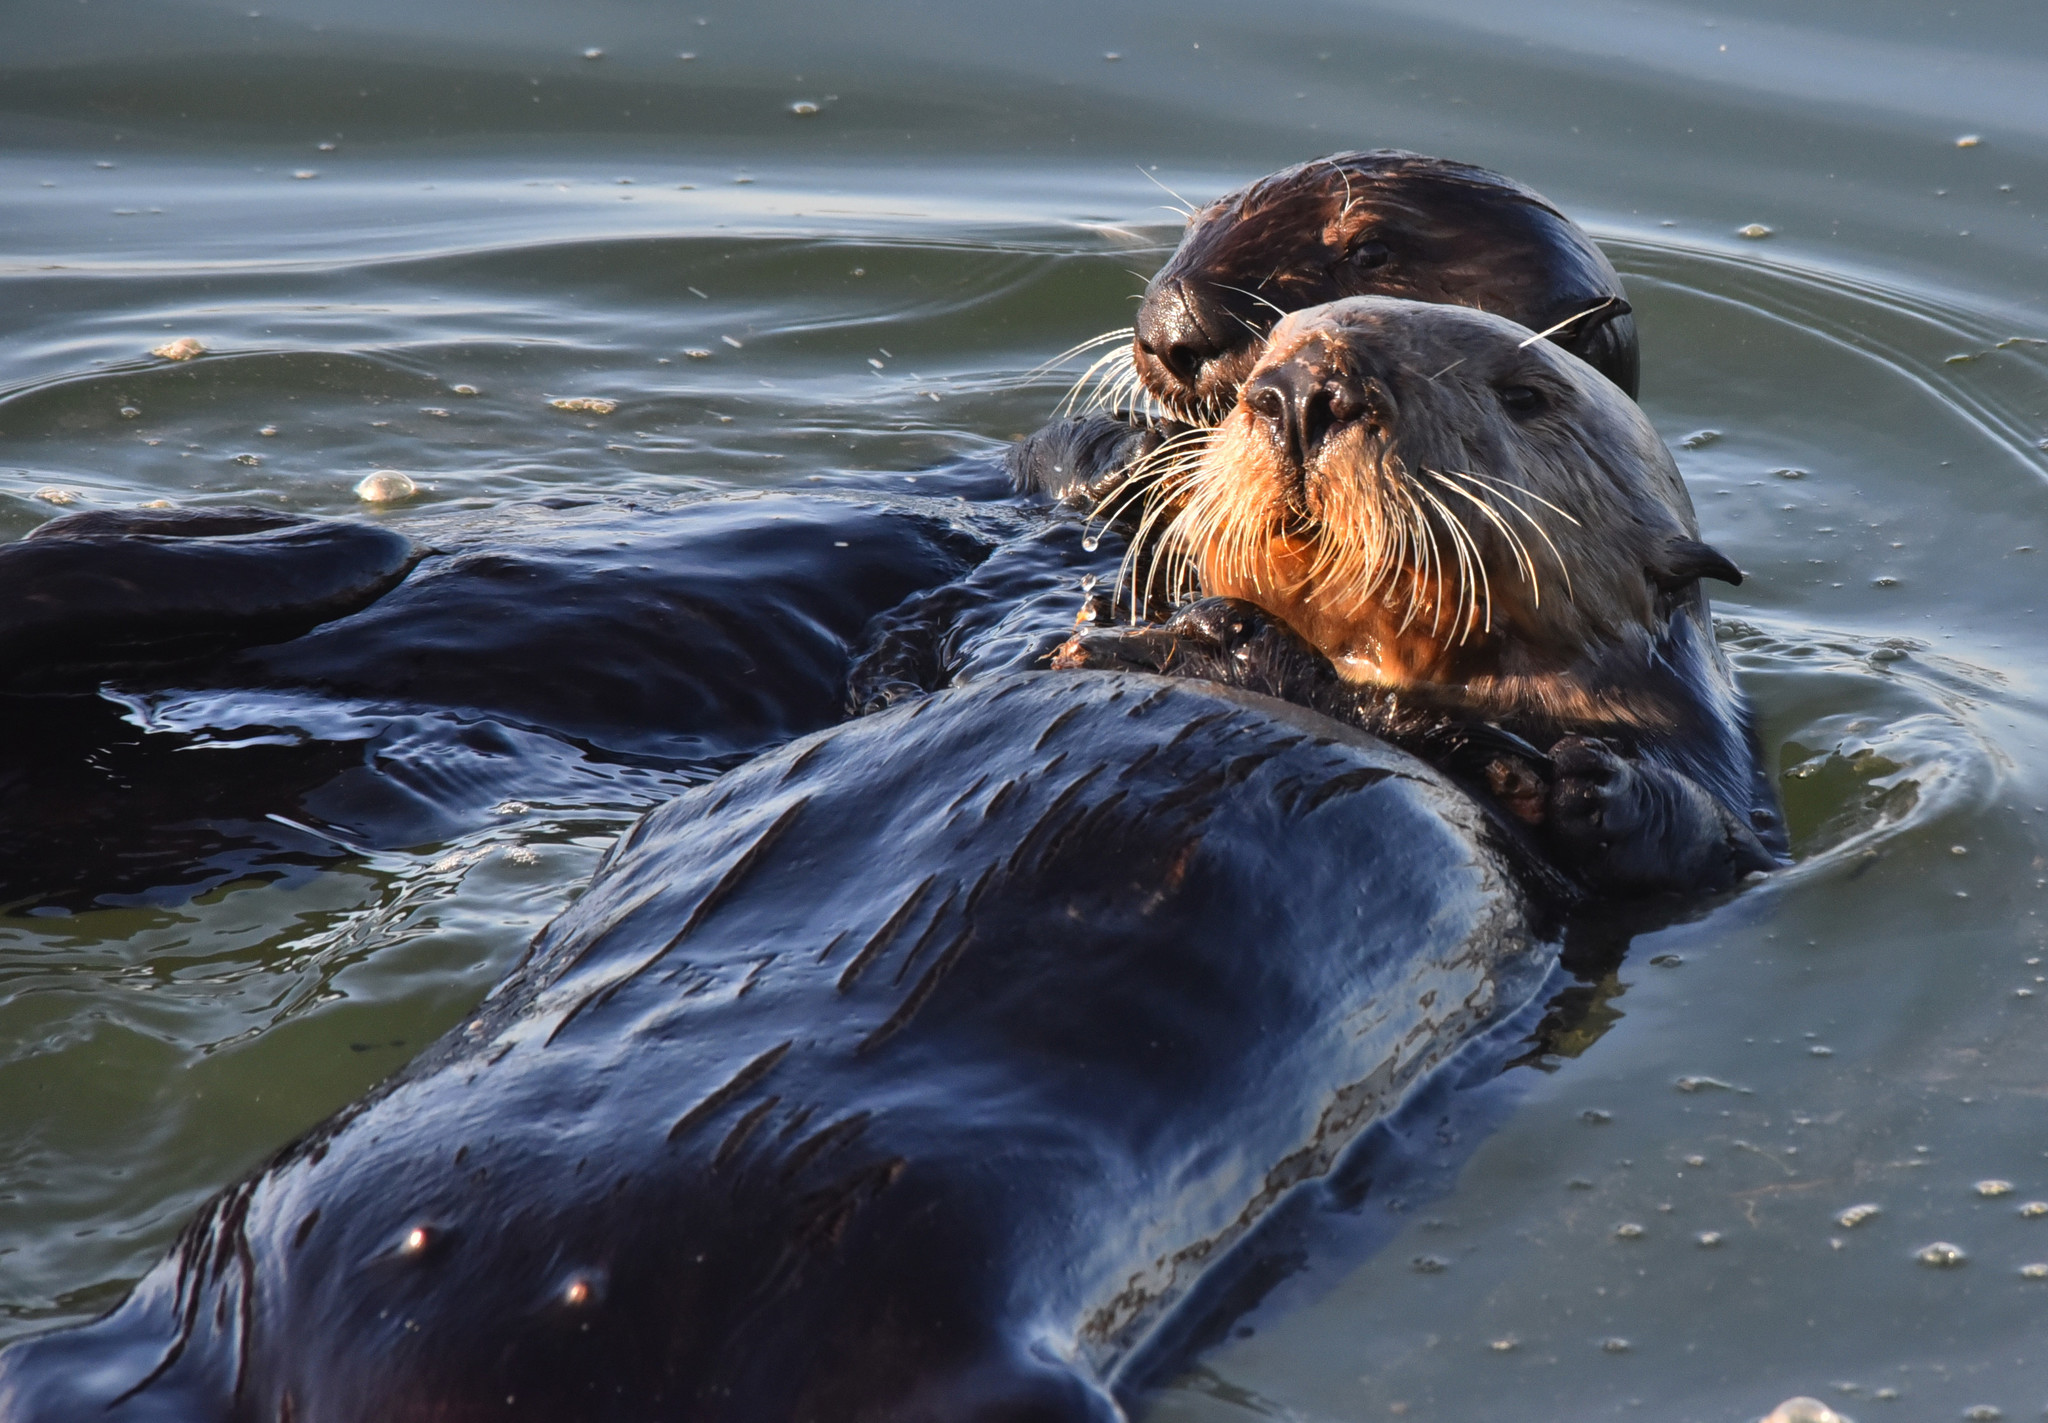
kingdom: Animalia
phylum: Chordata
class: Mammalia
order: Carnivora
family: Mustelidae
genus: Enhydra
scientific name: Enhydra lutris
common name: Sea otter
